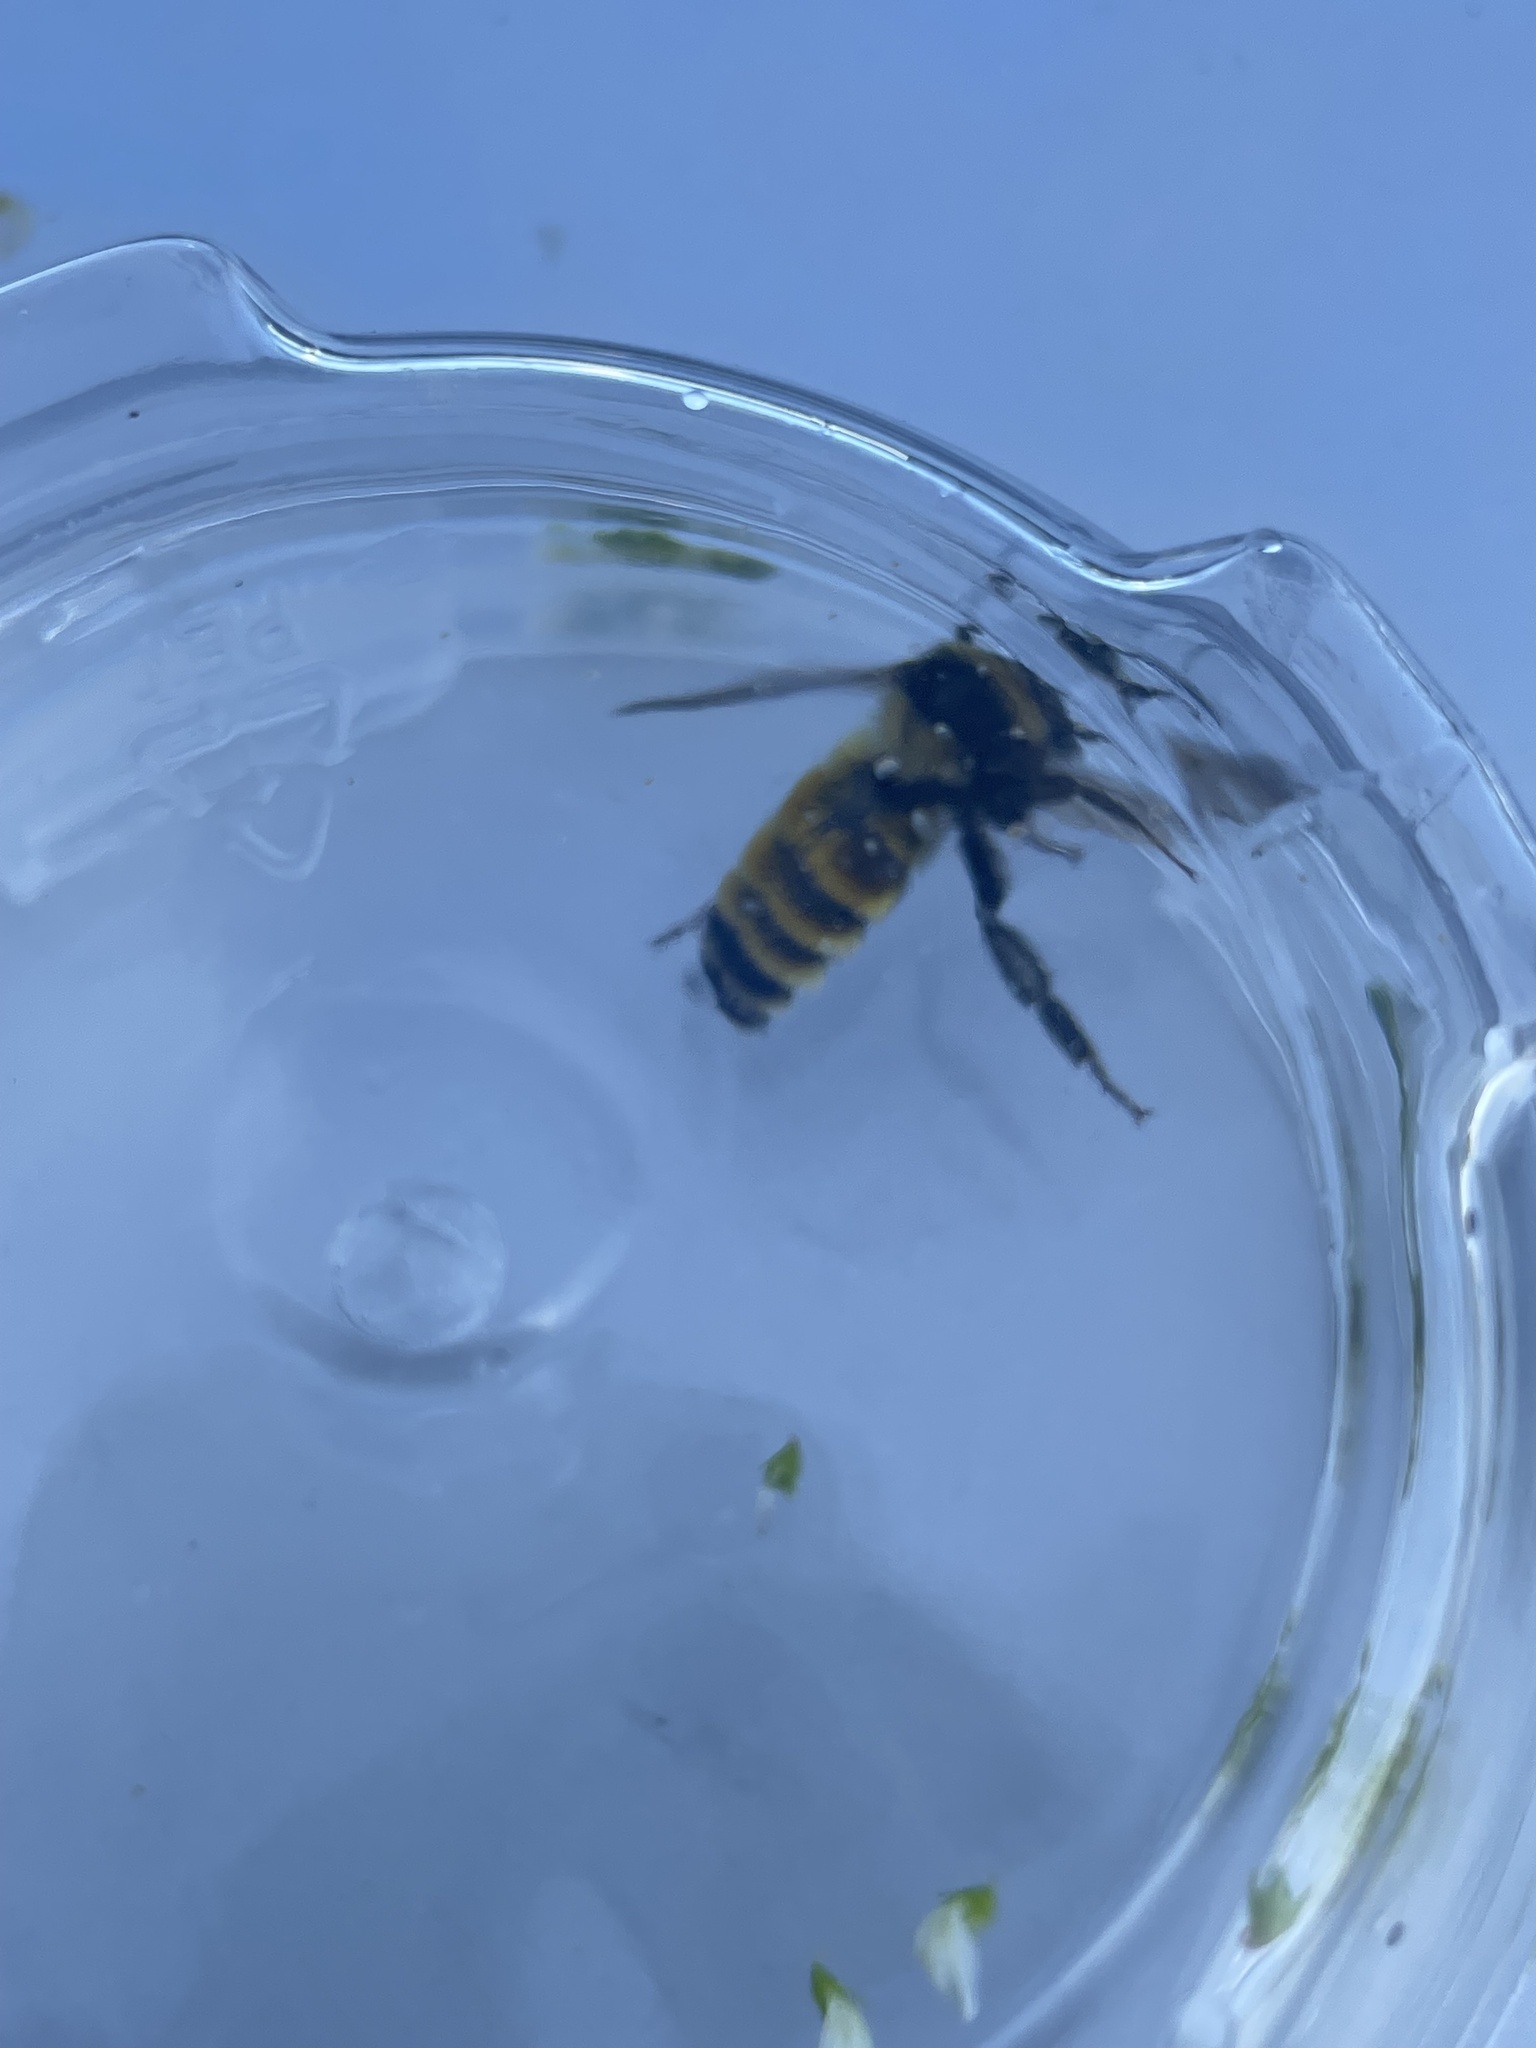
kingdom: Animalia
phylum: Arthropoda
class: Insecta
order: Hymenoptera
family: Apidae
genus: Bombus
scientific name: Bombus borealis
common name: Northern amber bumble bee
